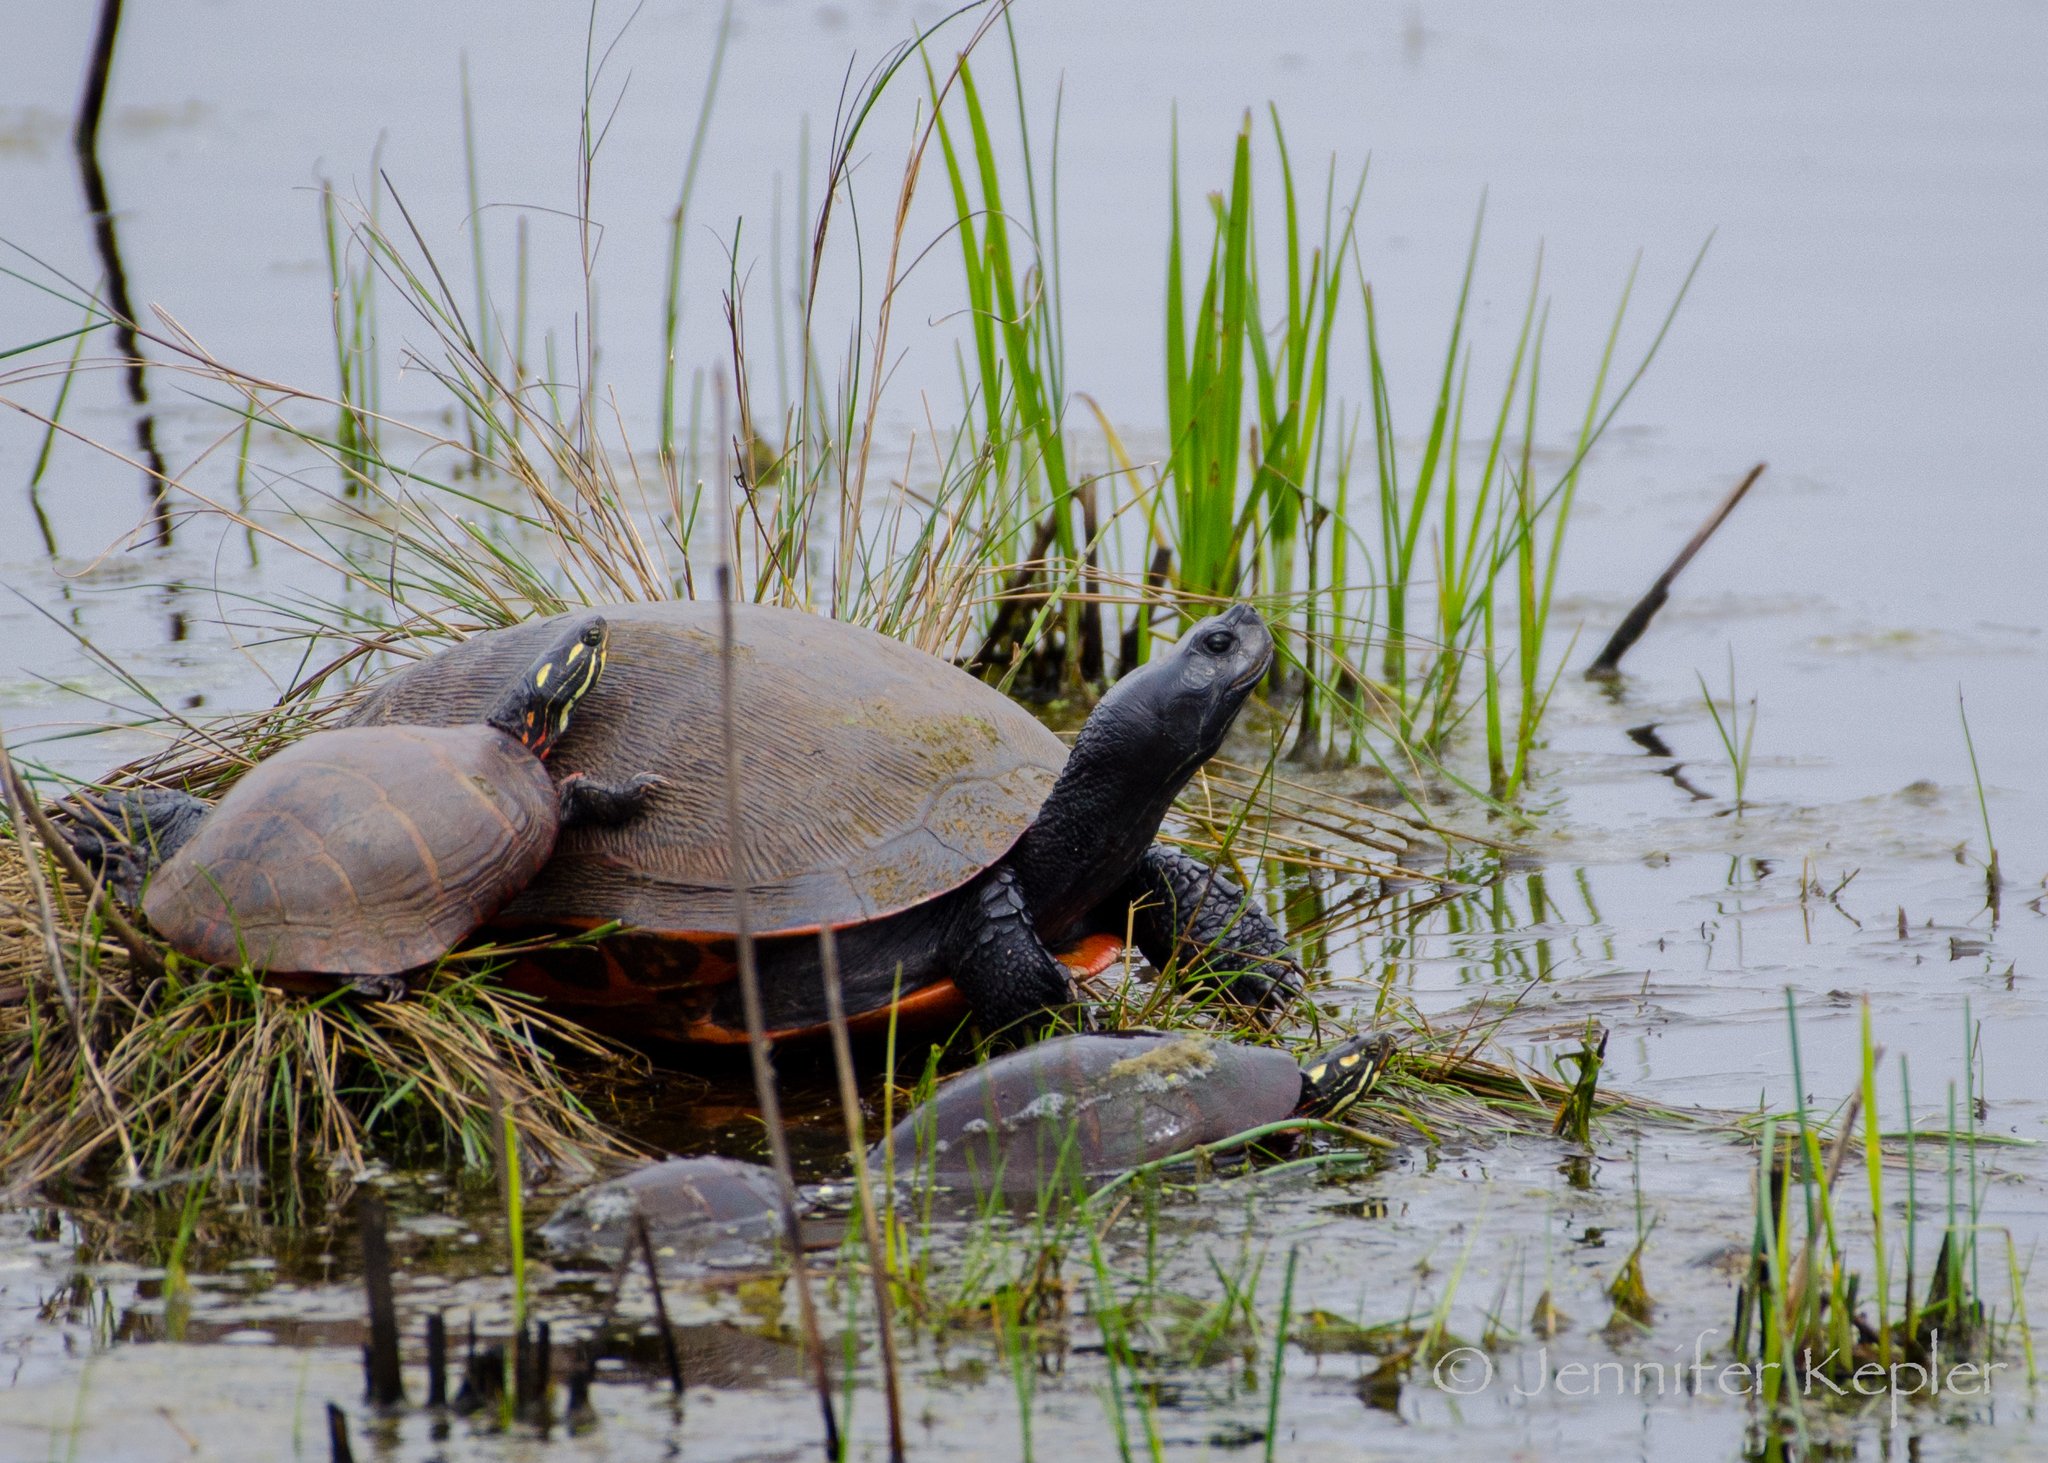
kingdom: Animalia
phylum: Chordata
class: Testudines
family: Emydidae
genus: Pseudemys
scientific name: Pseudemys rubriventris
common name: American red-bellied turtle
